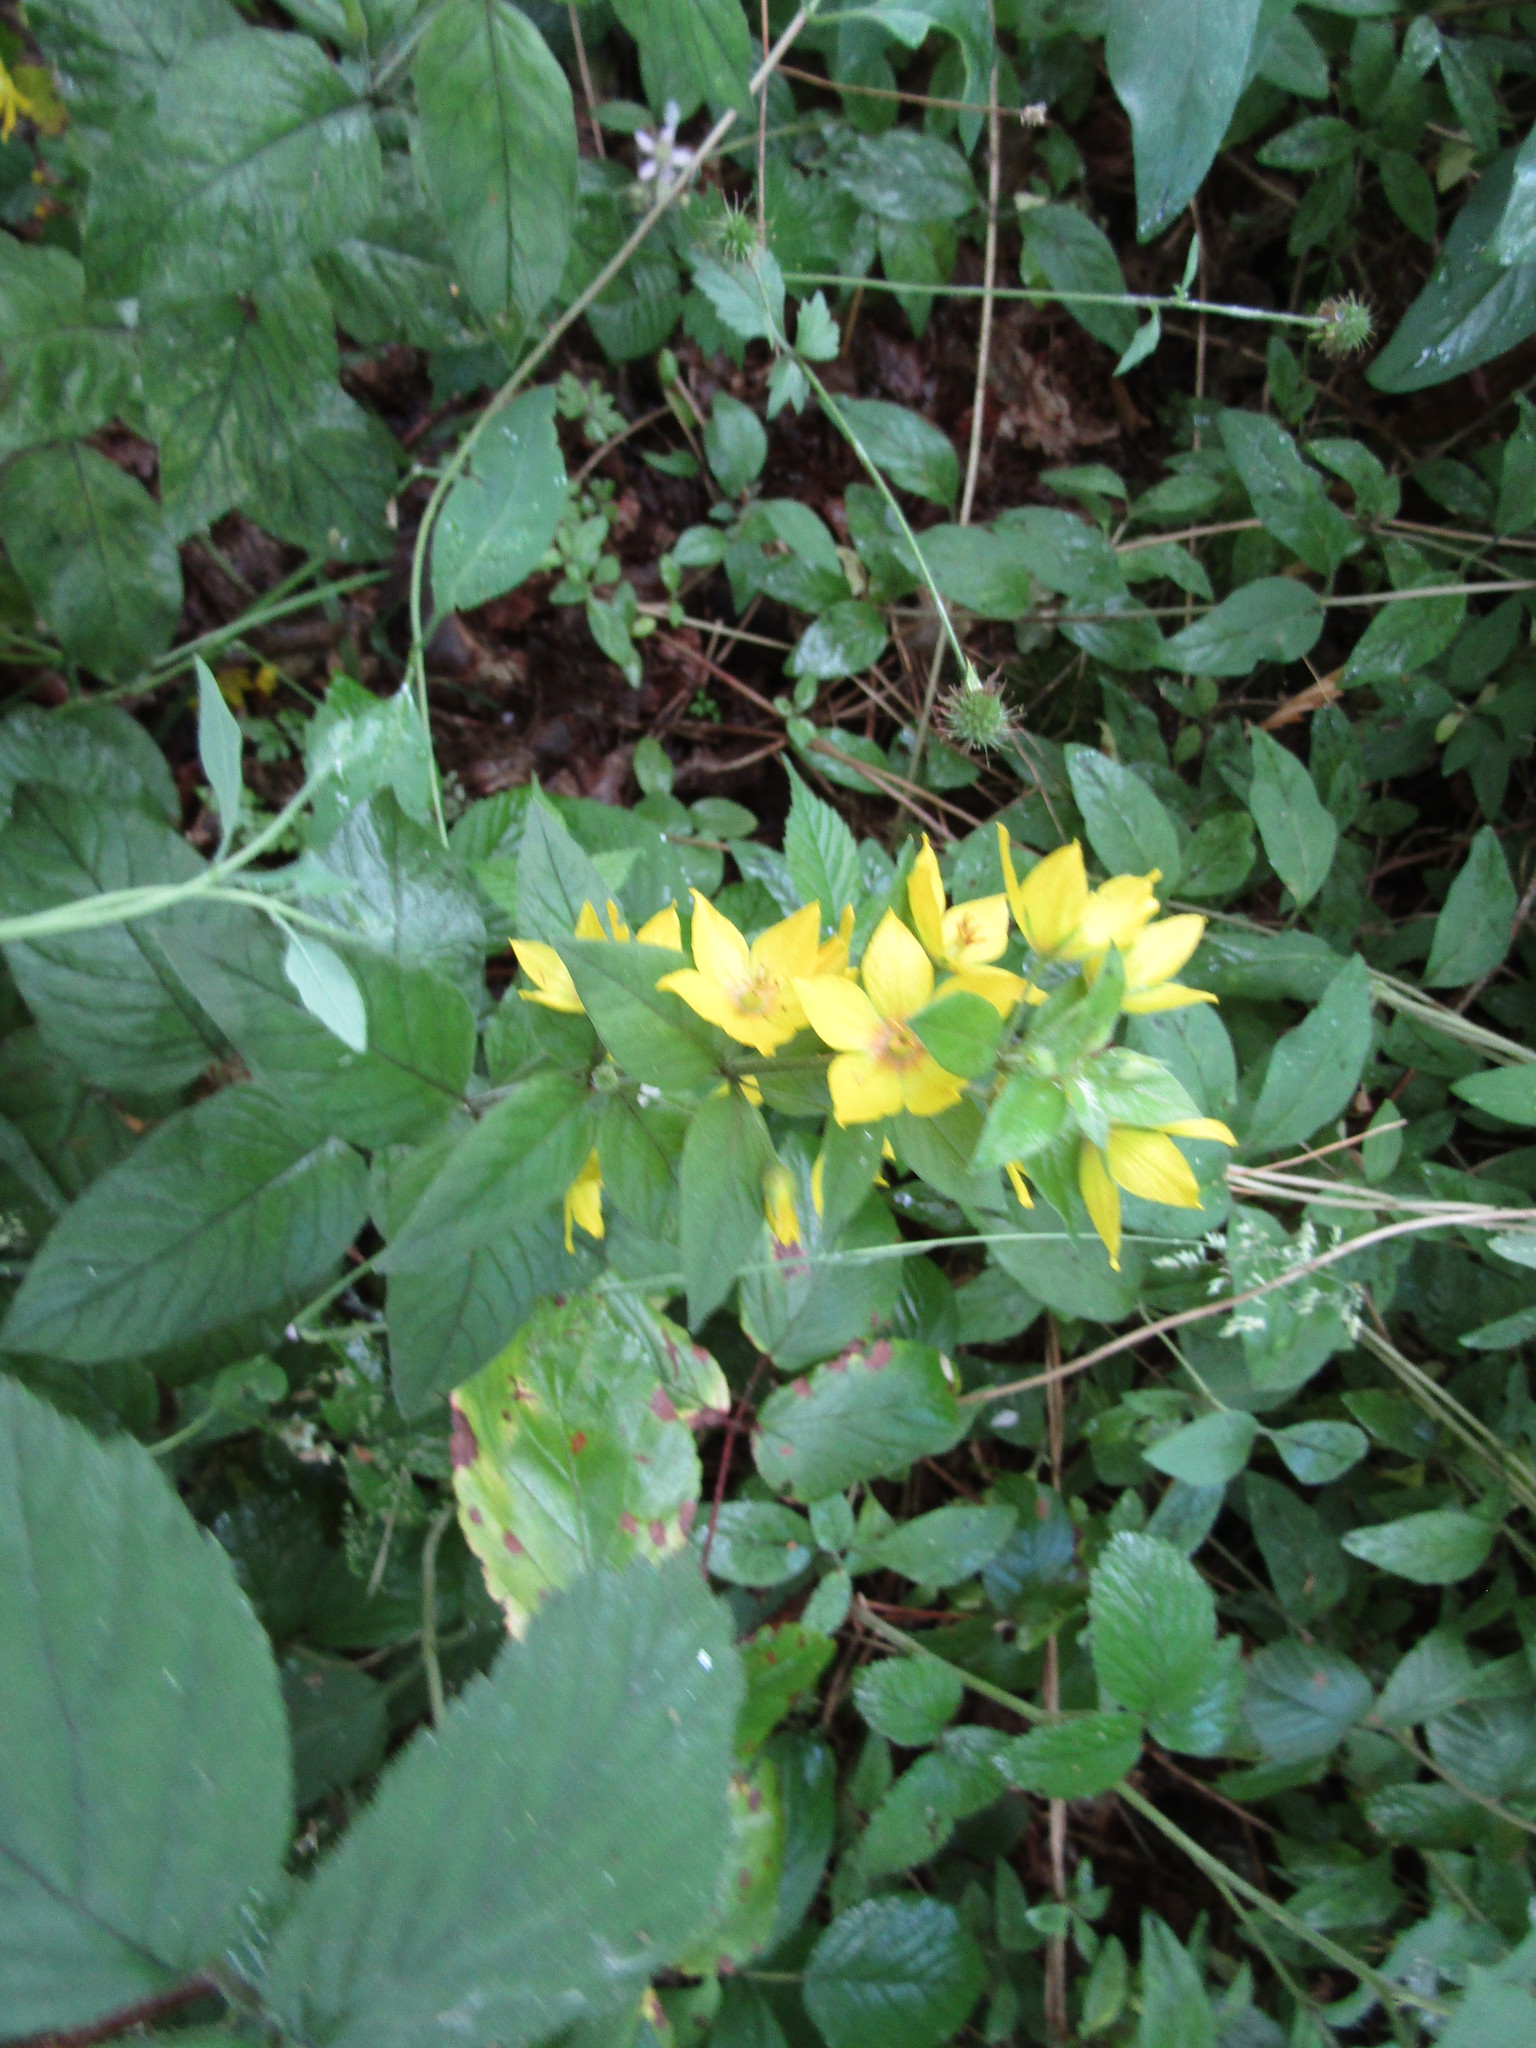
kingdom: Plantae
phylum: Tracheophyta
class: Magnoliopsida
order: Ericales
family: Primulaceae
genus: Lysimachia
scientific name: Lysimachia punctata
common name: Dotted loosestrife
